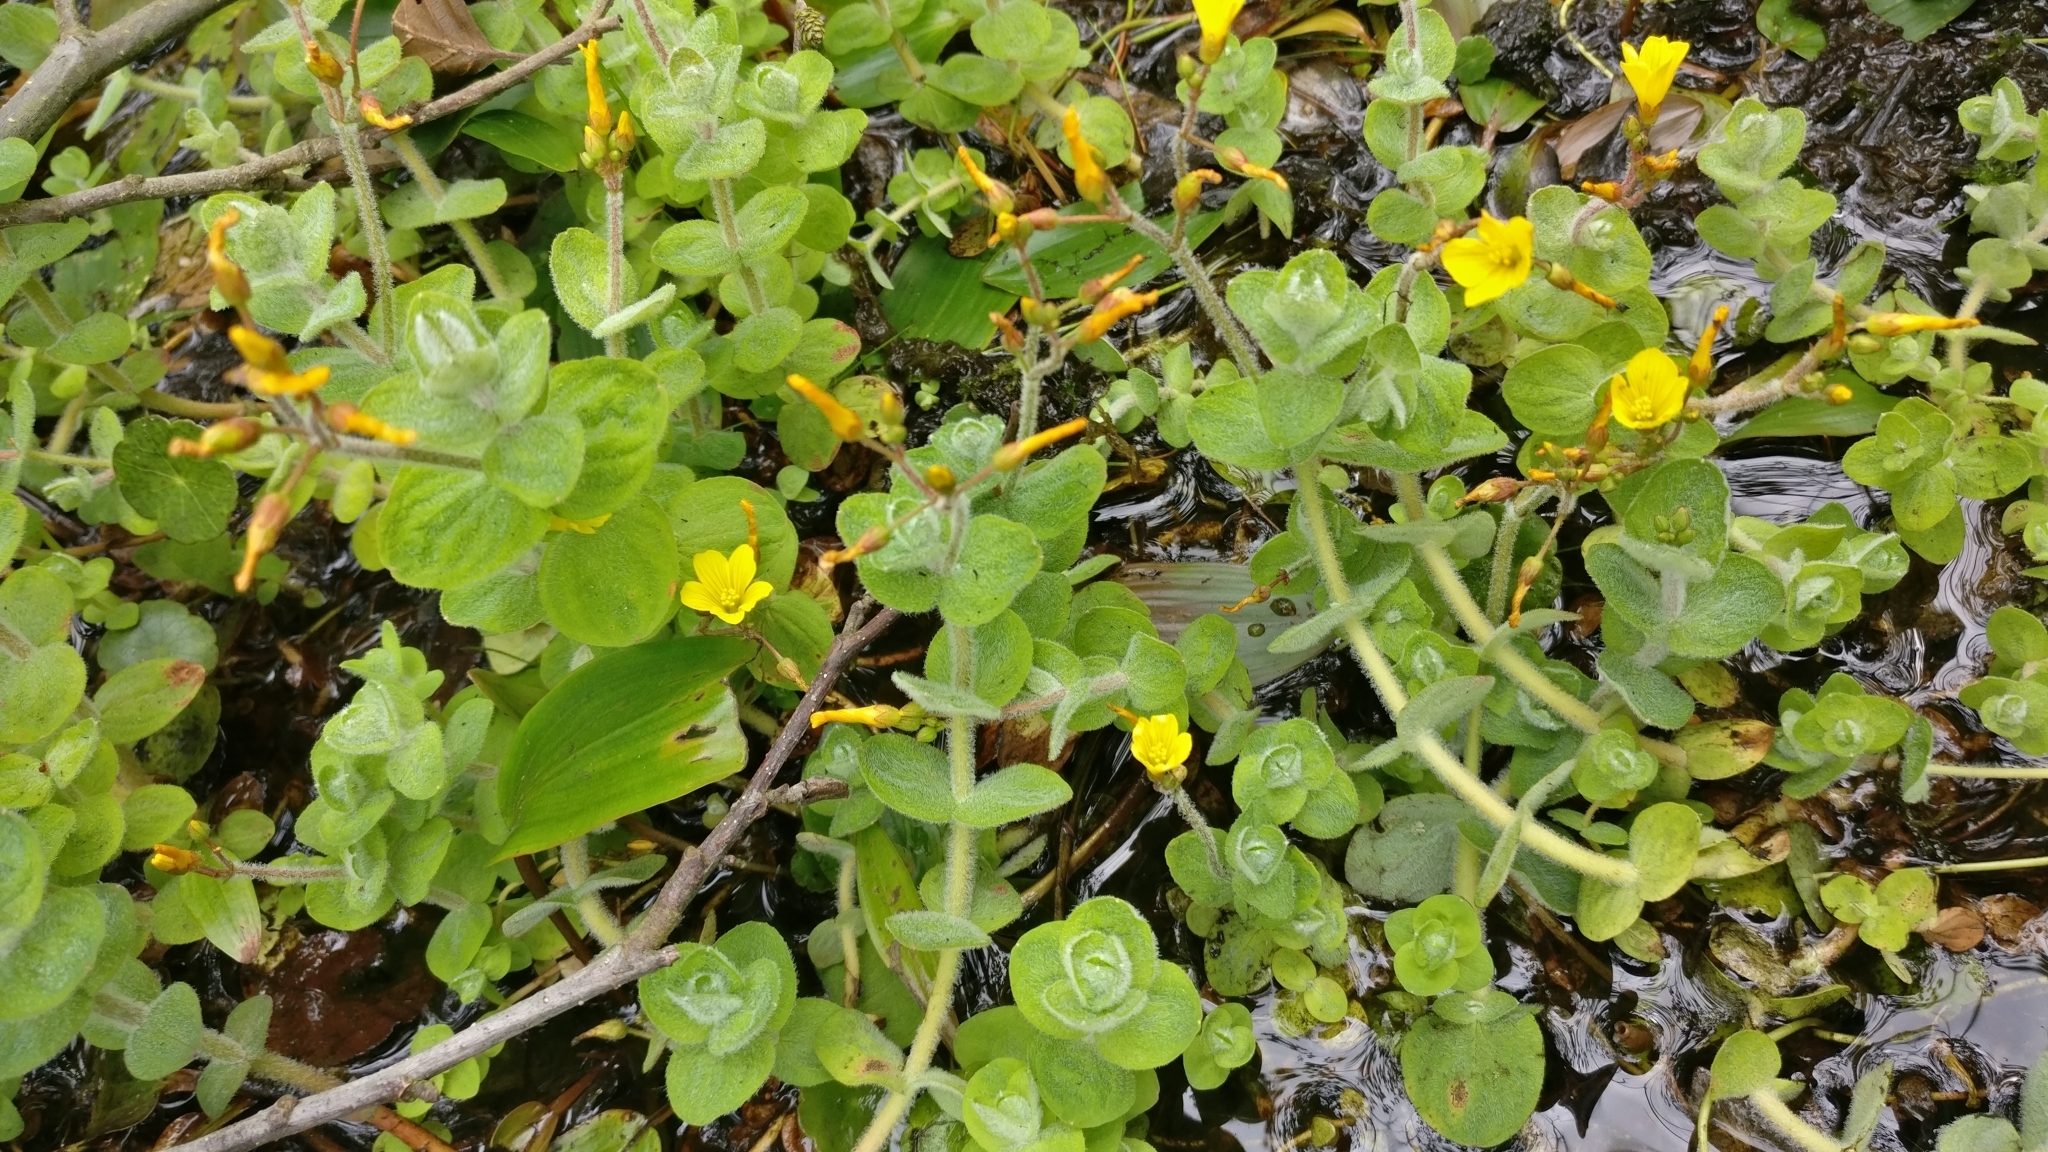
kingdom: Plantae
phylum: Tracheophyta
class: Magnoliopsida
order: Malpighiales
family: Hypericaceae
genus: Hypericum
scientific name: Hypericum elodes
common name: Marsh st. john's-wort
